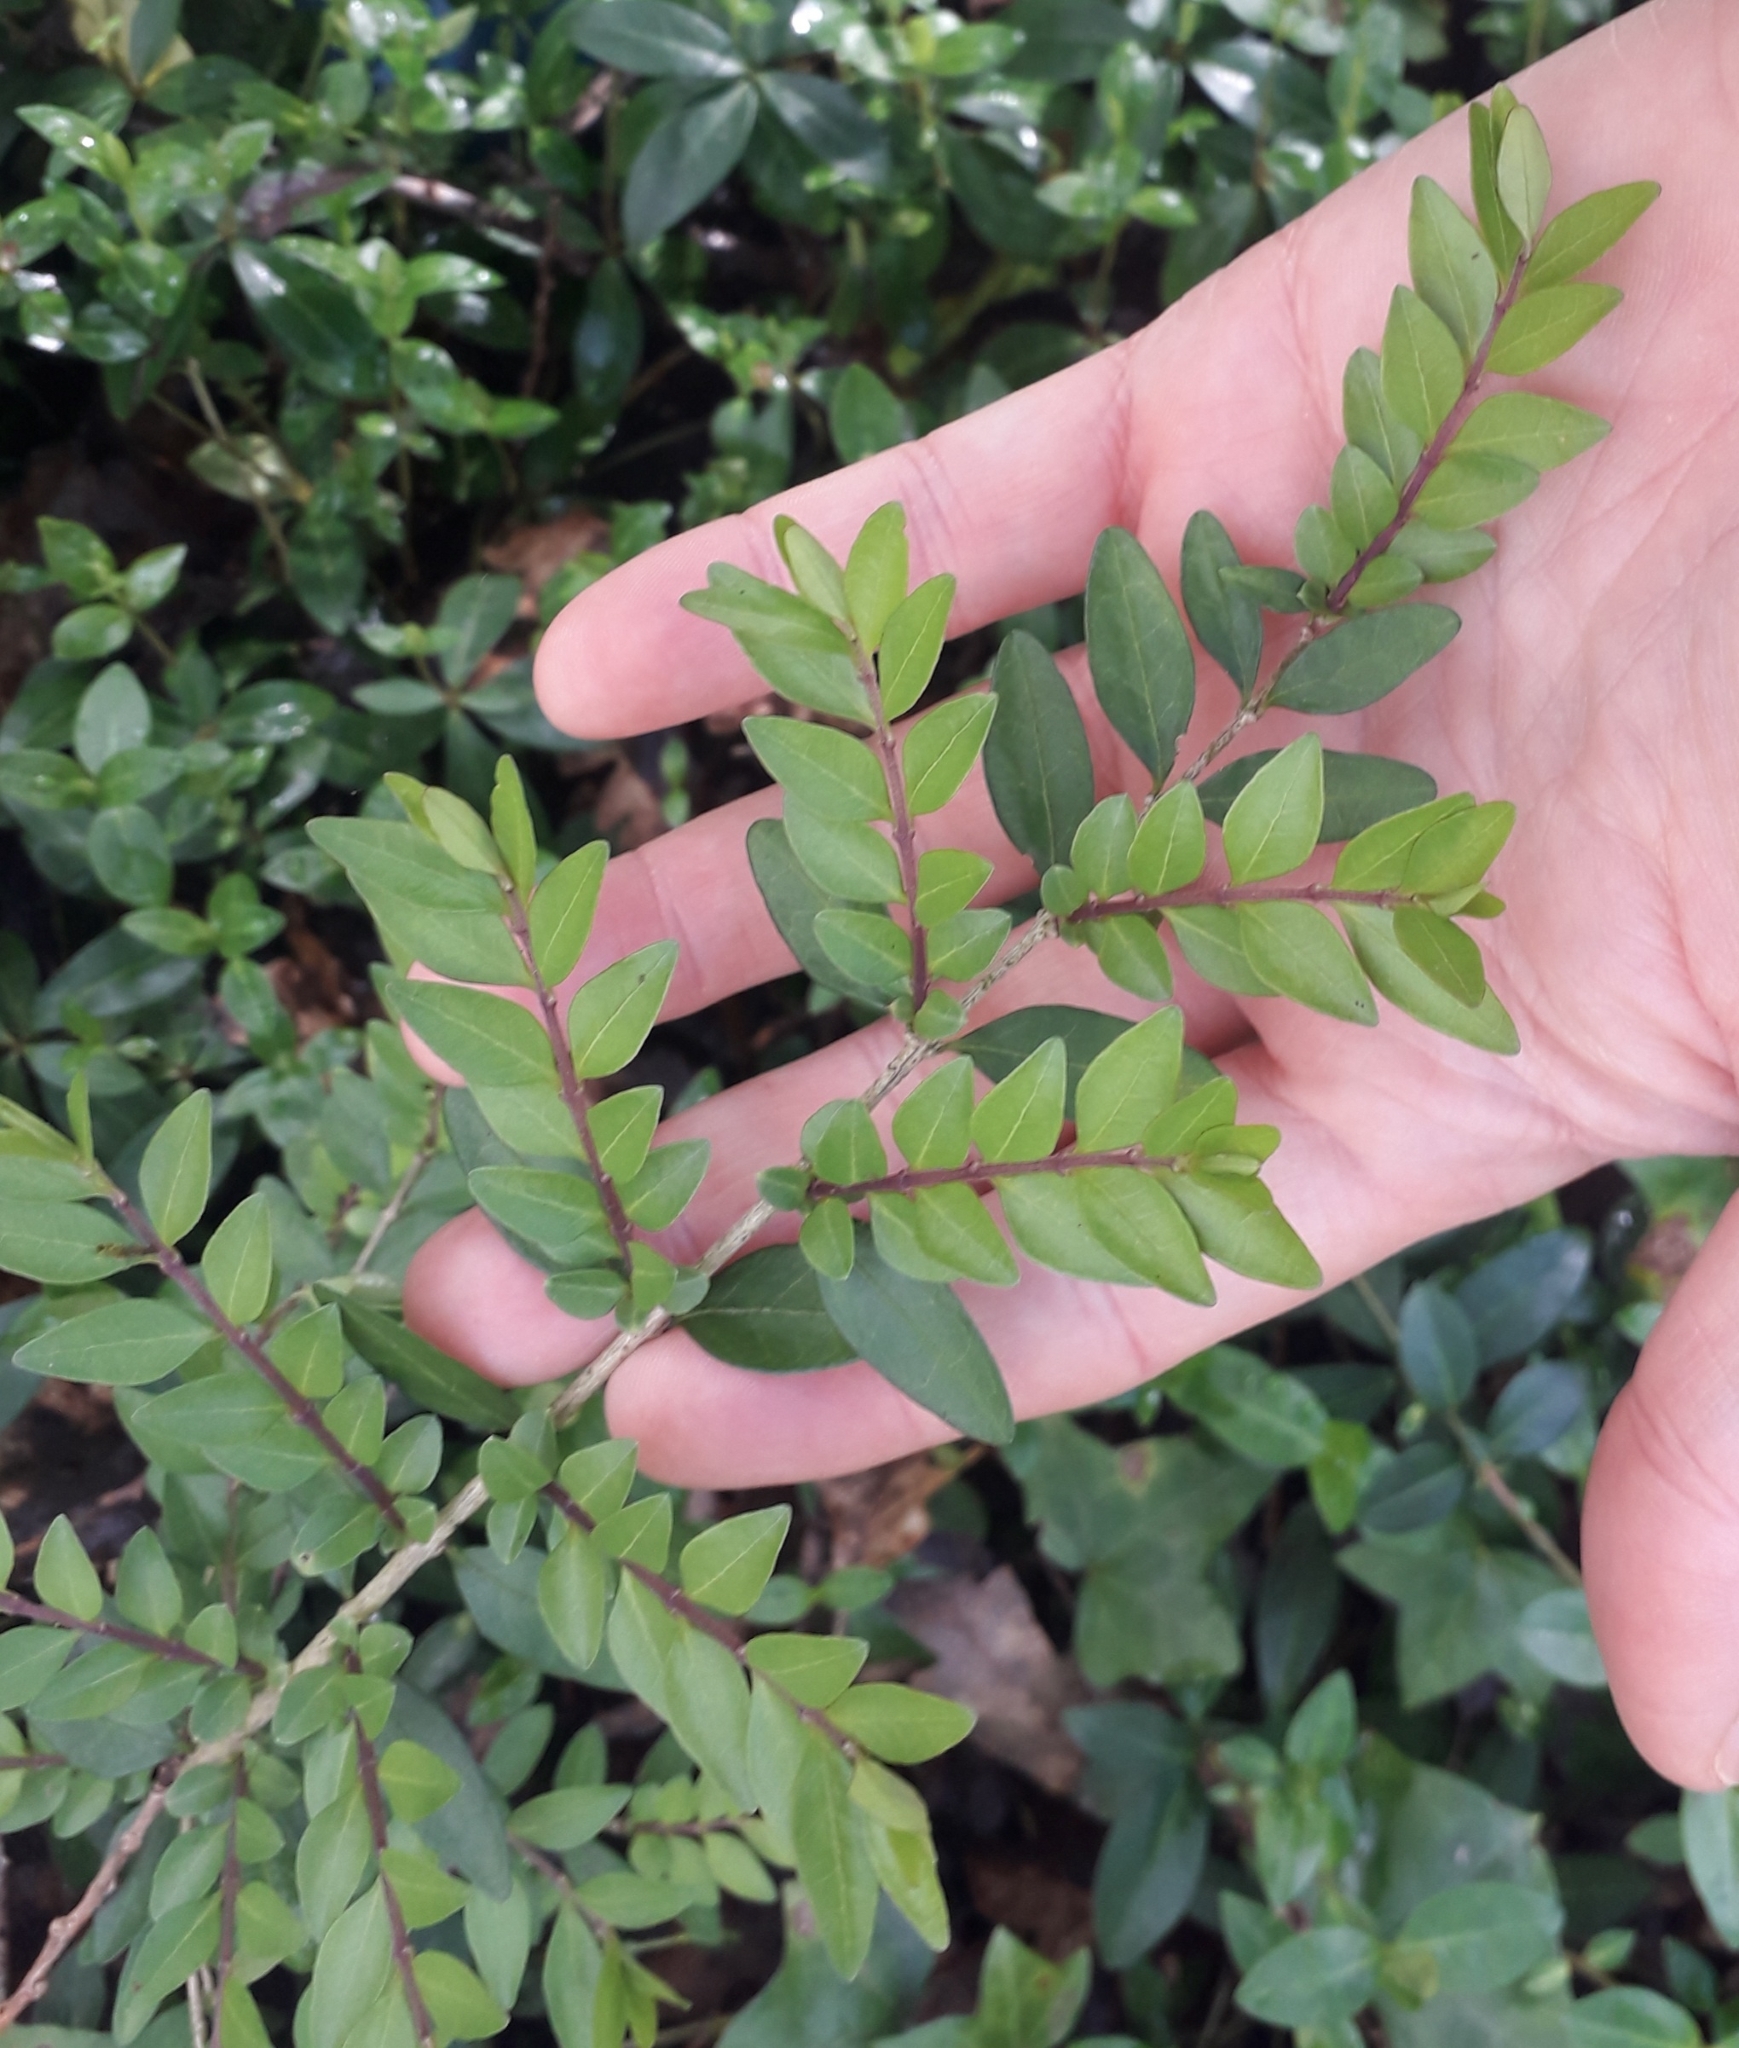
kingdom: Plantae
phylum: Tracheophyta
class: Magnoliopsida
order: Dipsacales
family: Caprifoliaceae
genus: Lonicera
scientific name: Lonicera ligustrina
